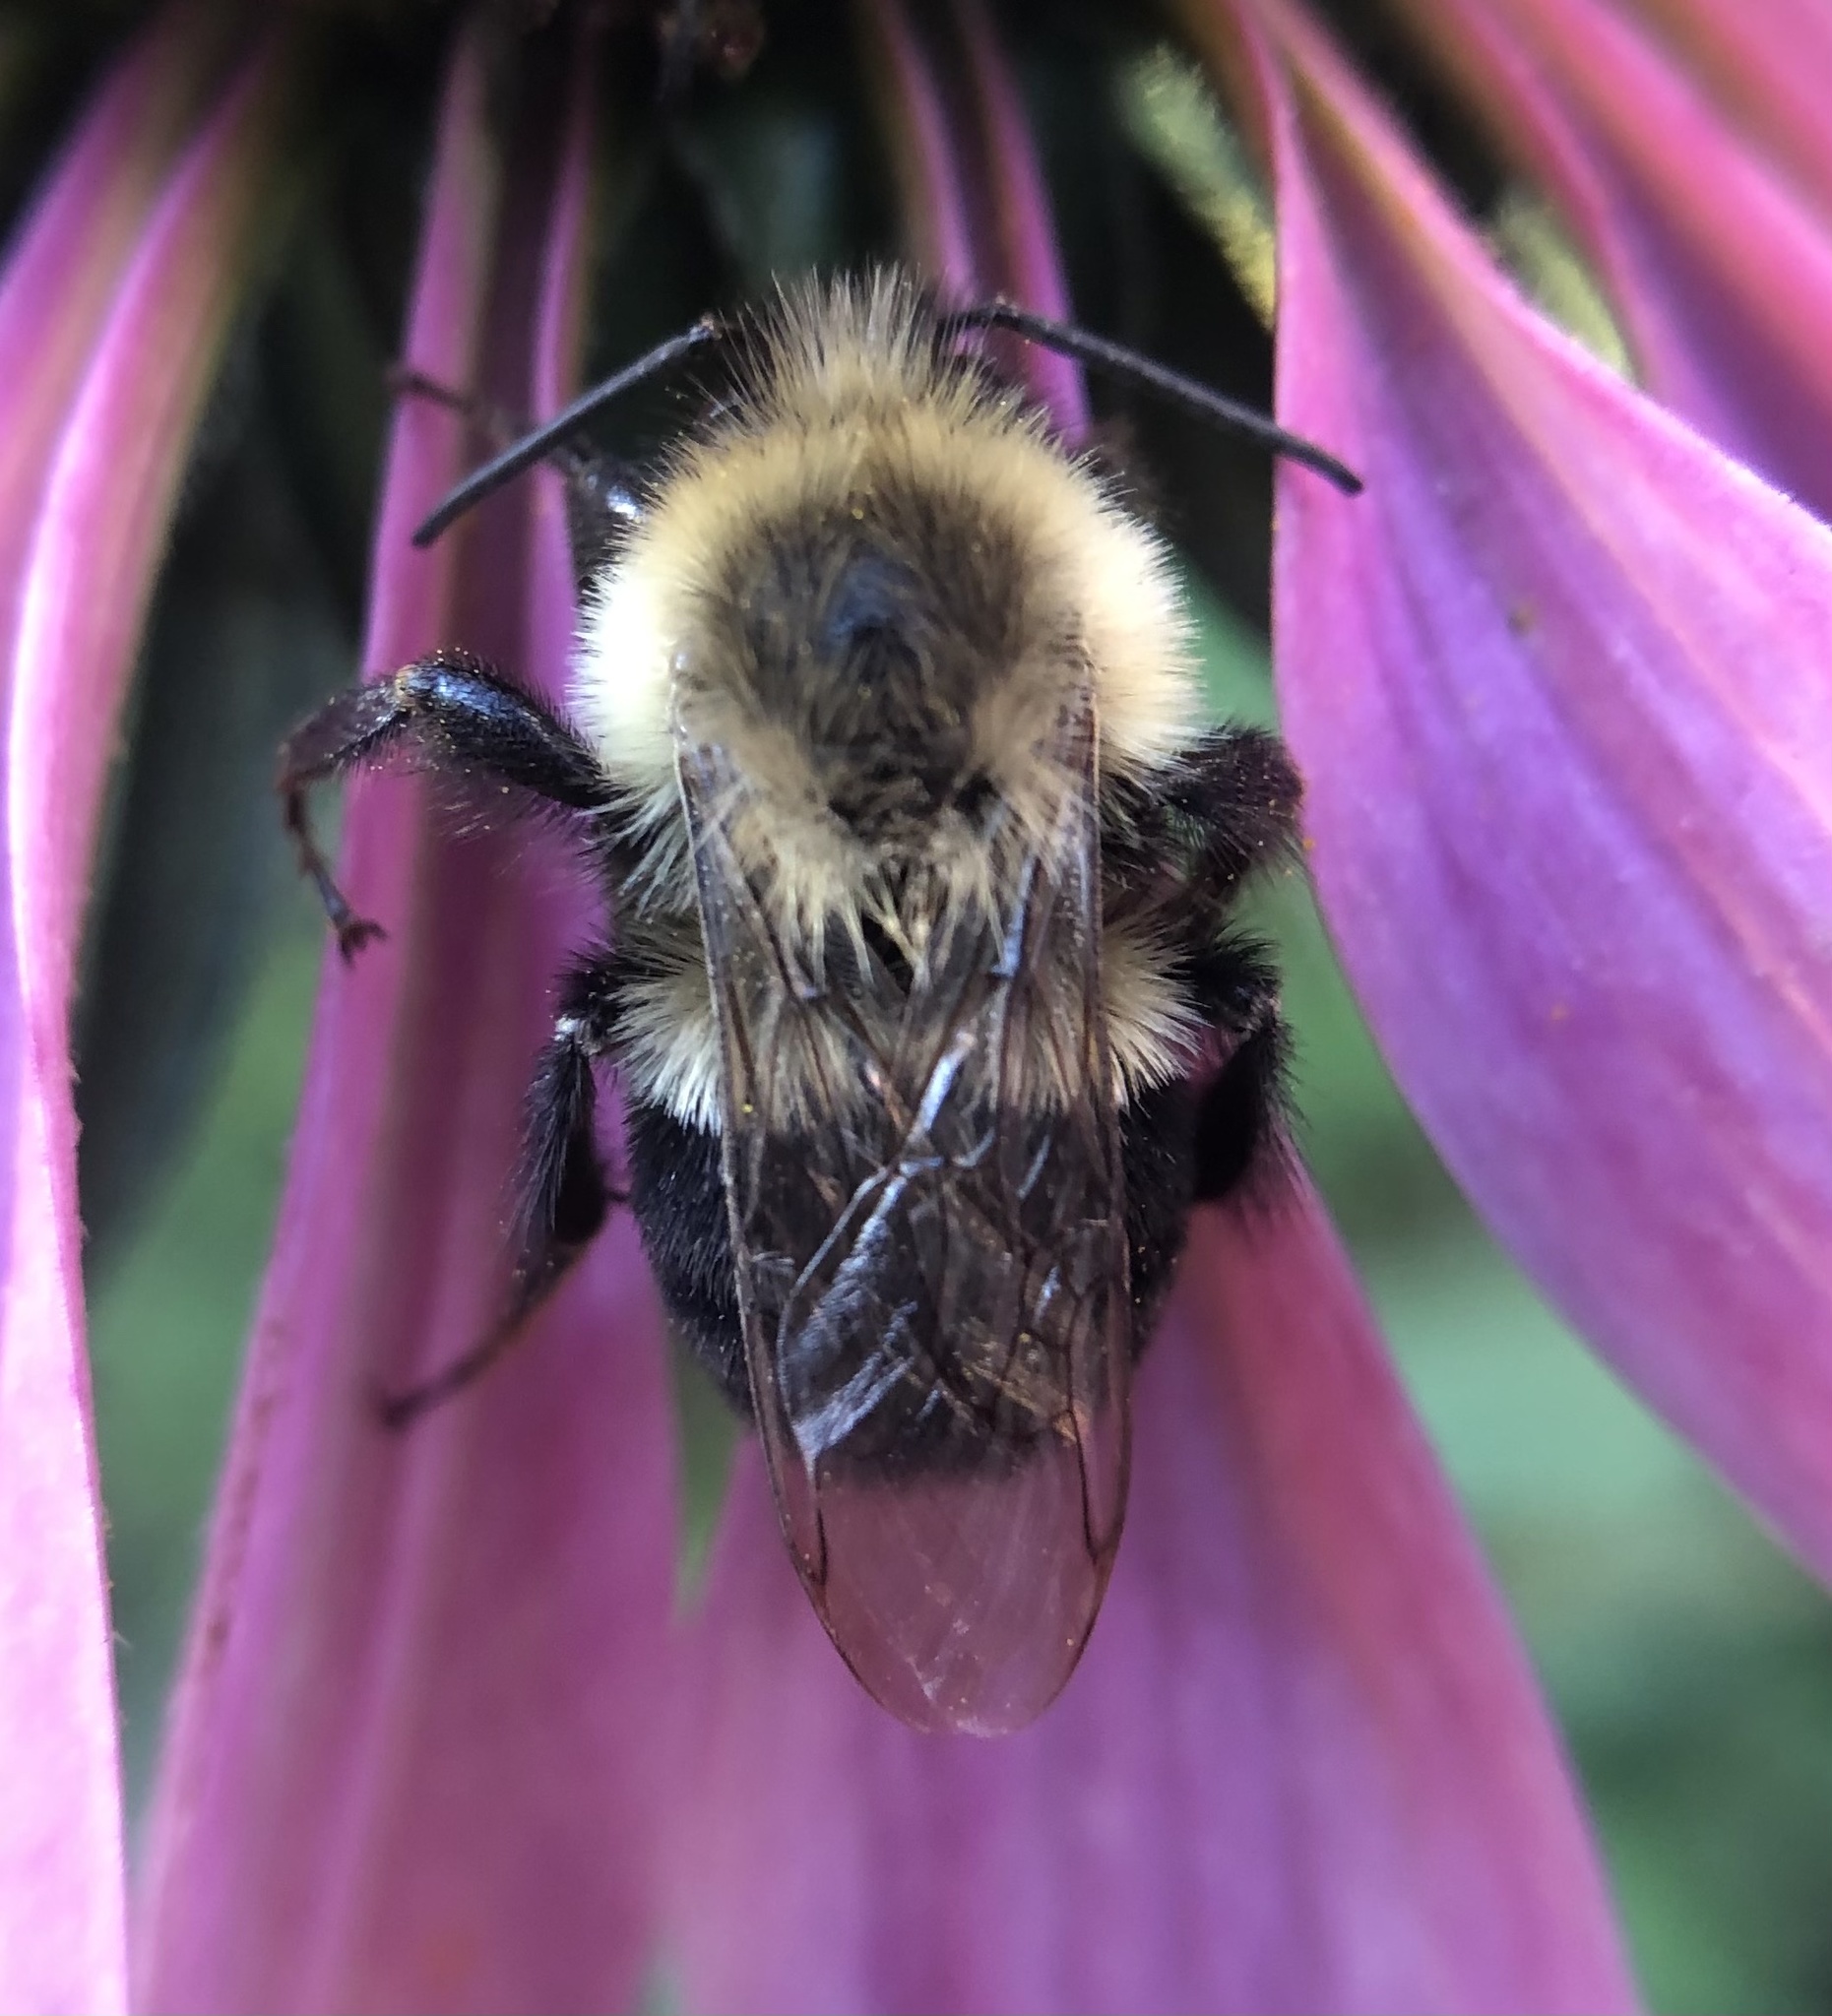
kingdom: Animalia
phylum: Arthropoda
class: Insecta
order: Hymenoptera
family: Apidae
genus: Bombus
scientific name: Bombus impatiens
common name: Common eastern bumble bee
